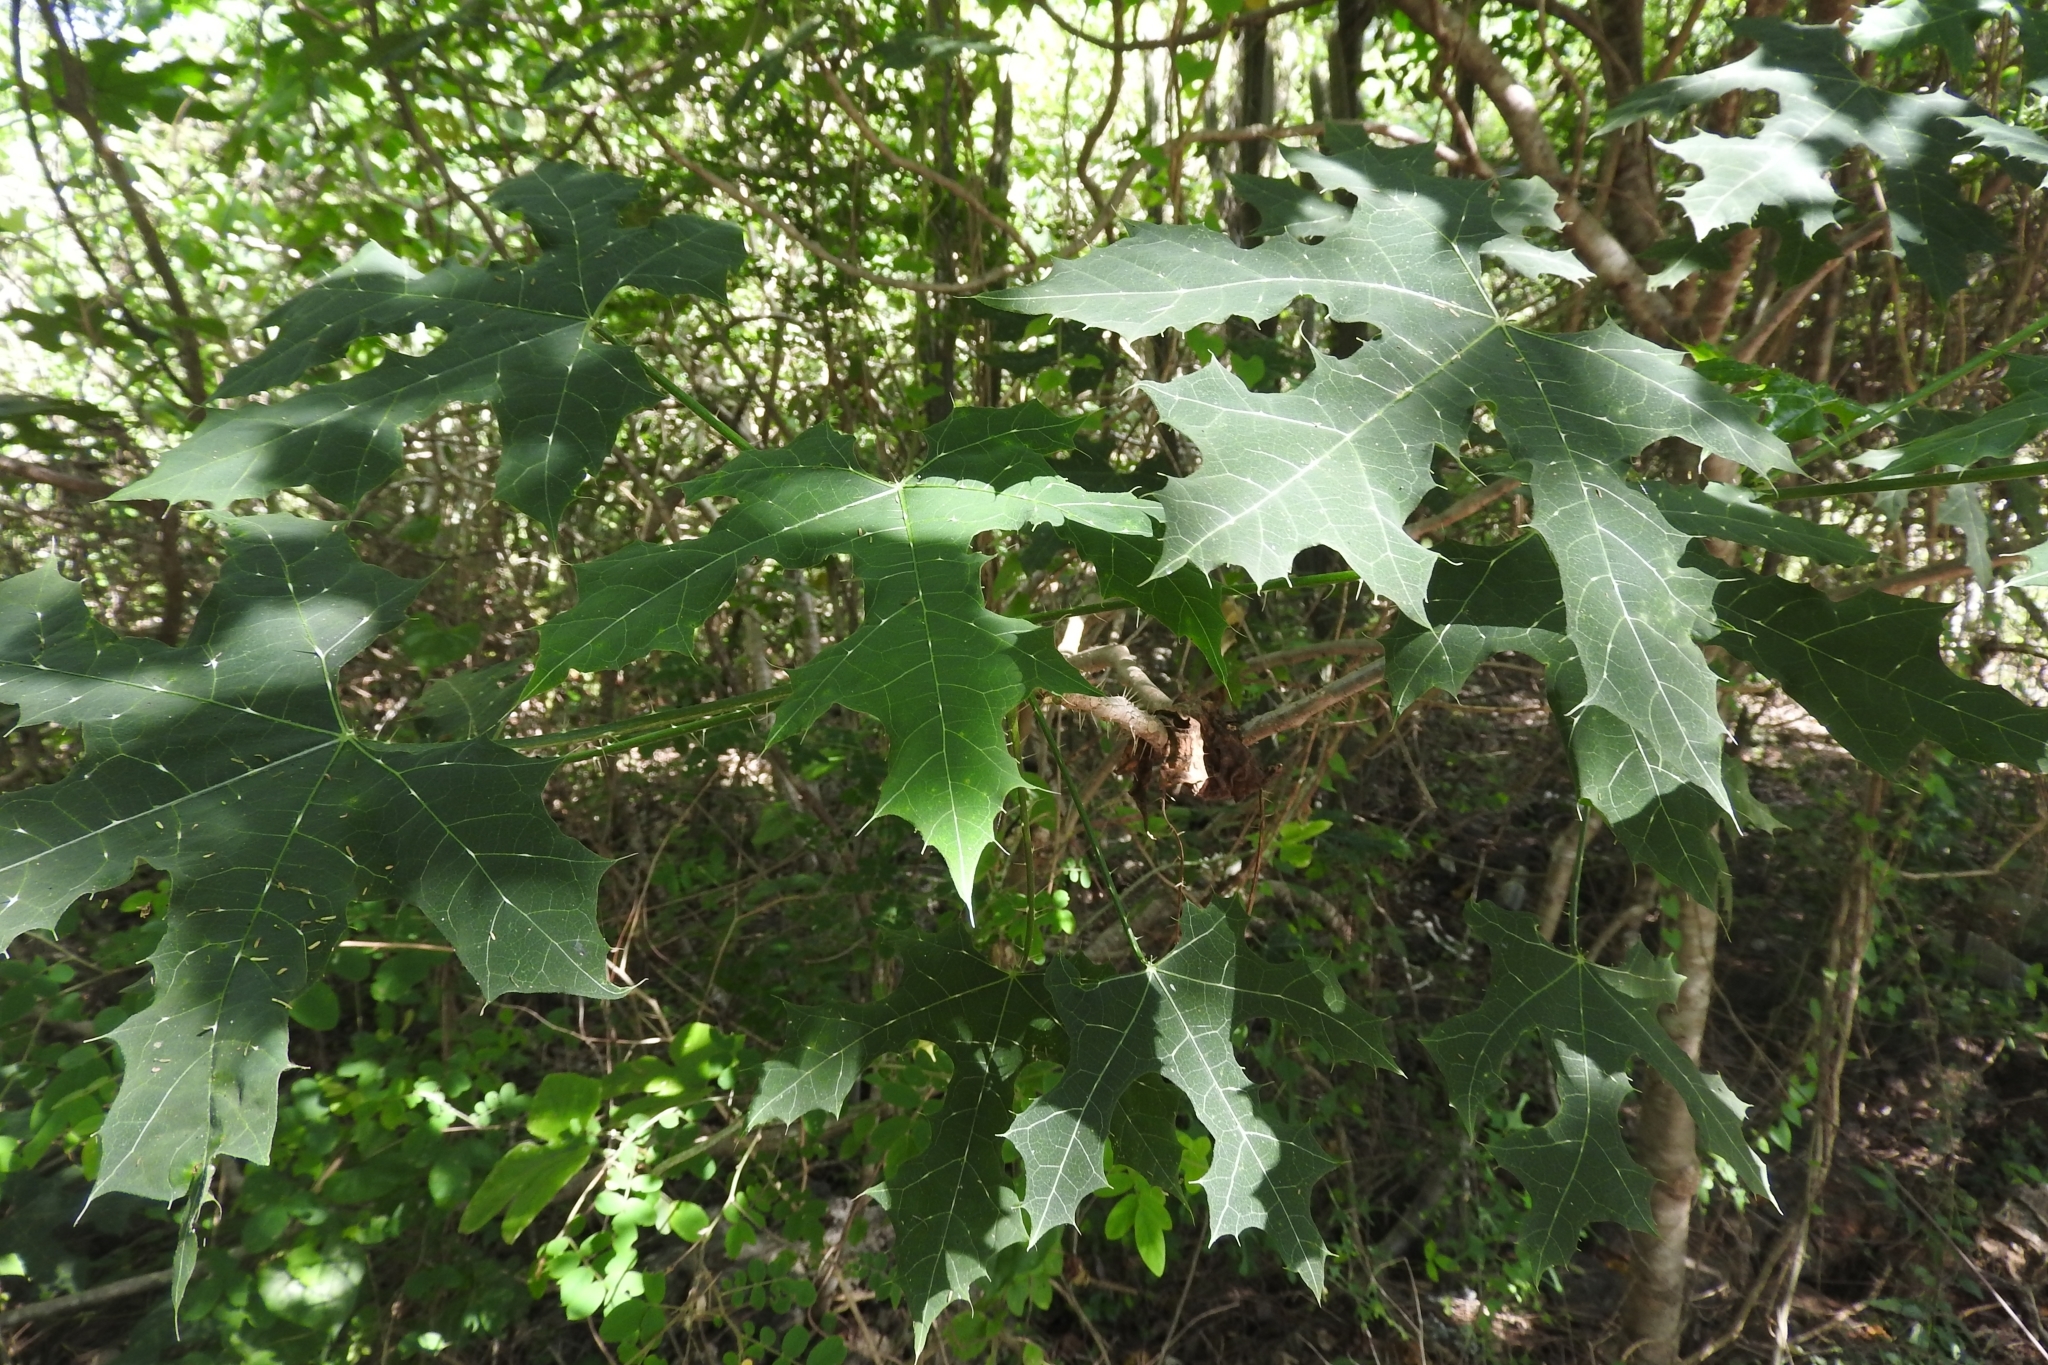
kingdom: Plantae
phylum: Tracheophyta
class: Magnoliopsida
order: Malpighiales
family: Euphorbiaceae
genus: Cnidoscolus
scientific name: Cnidoscolus souzae
